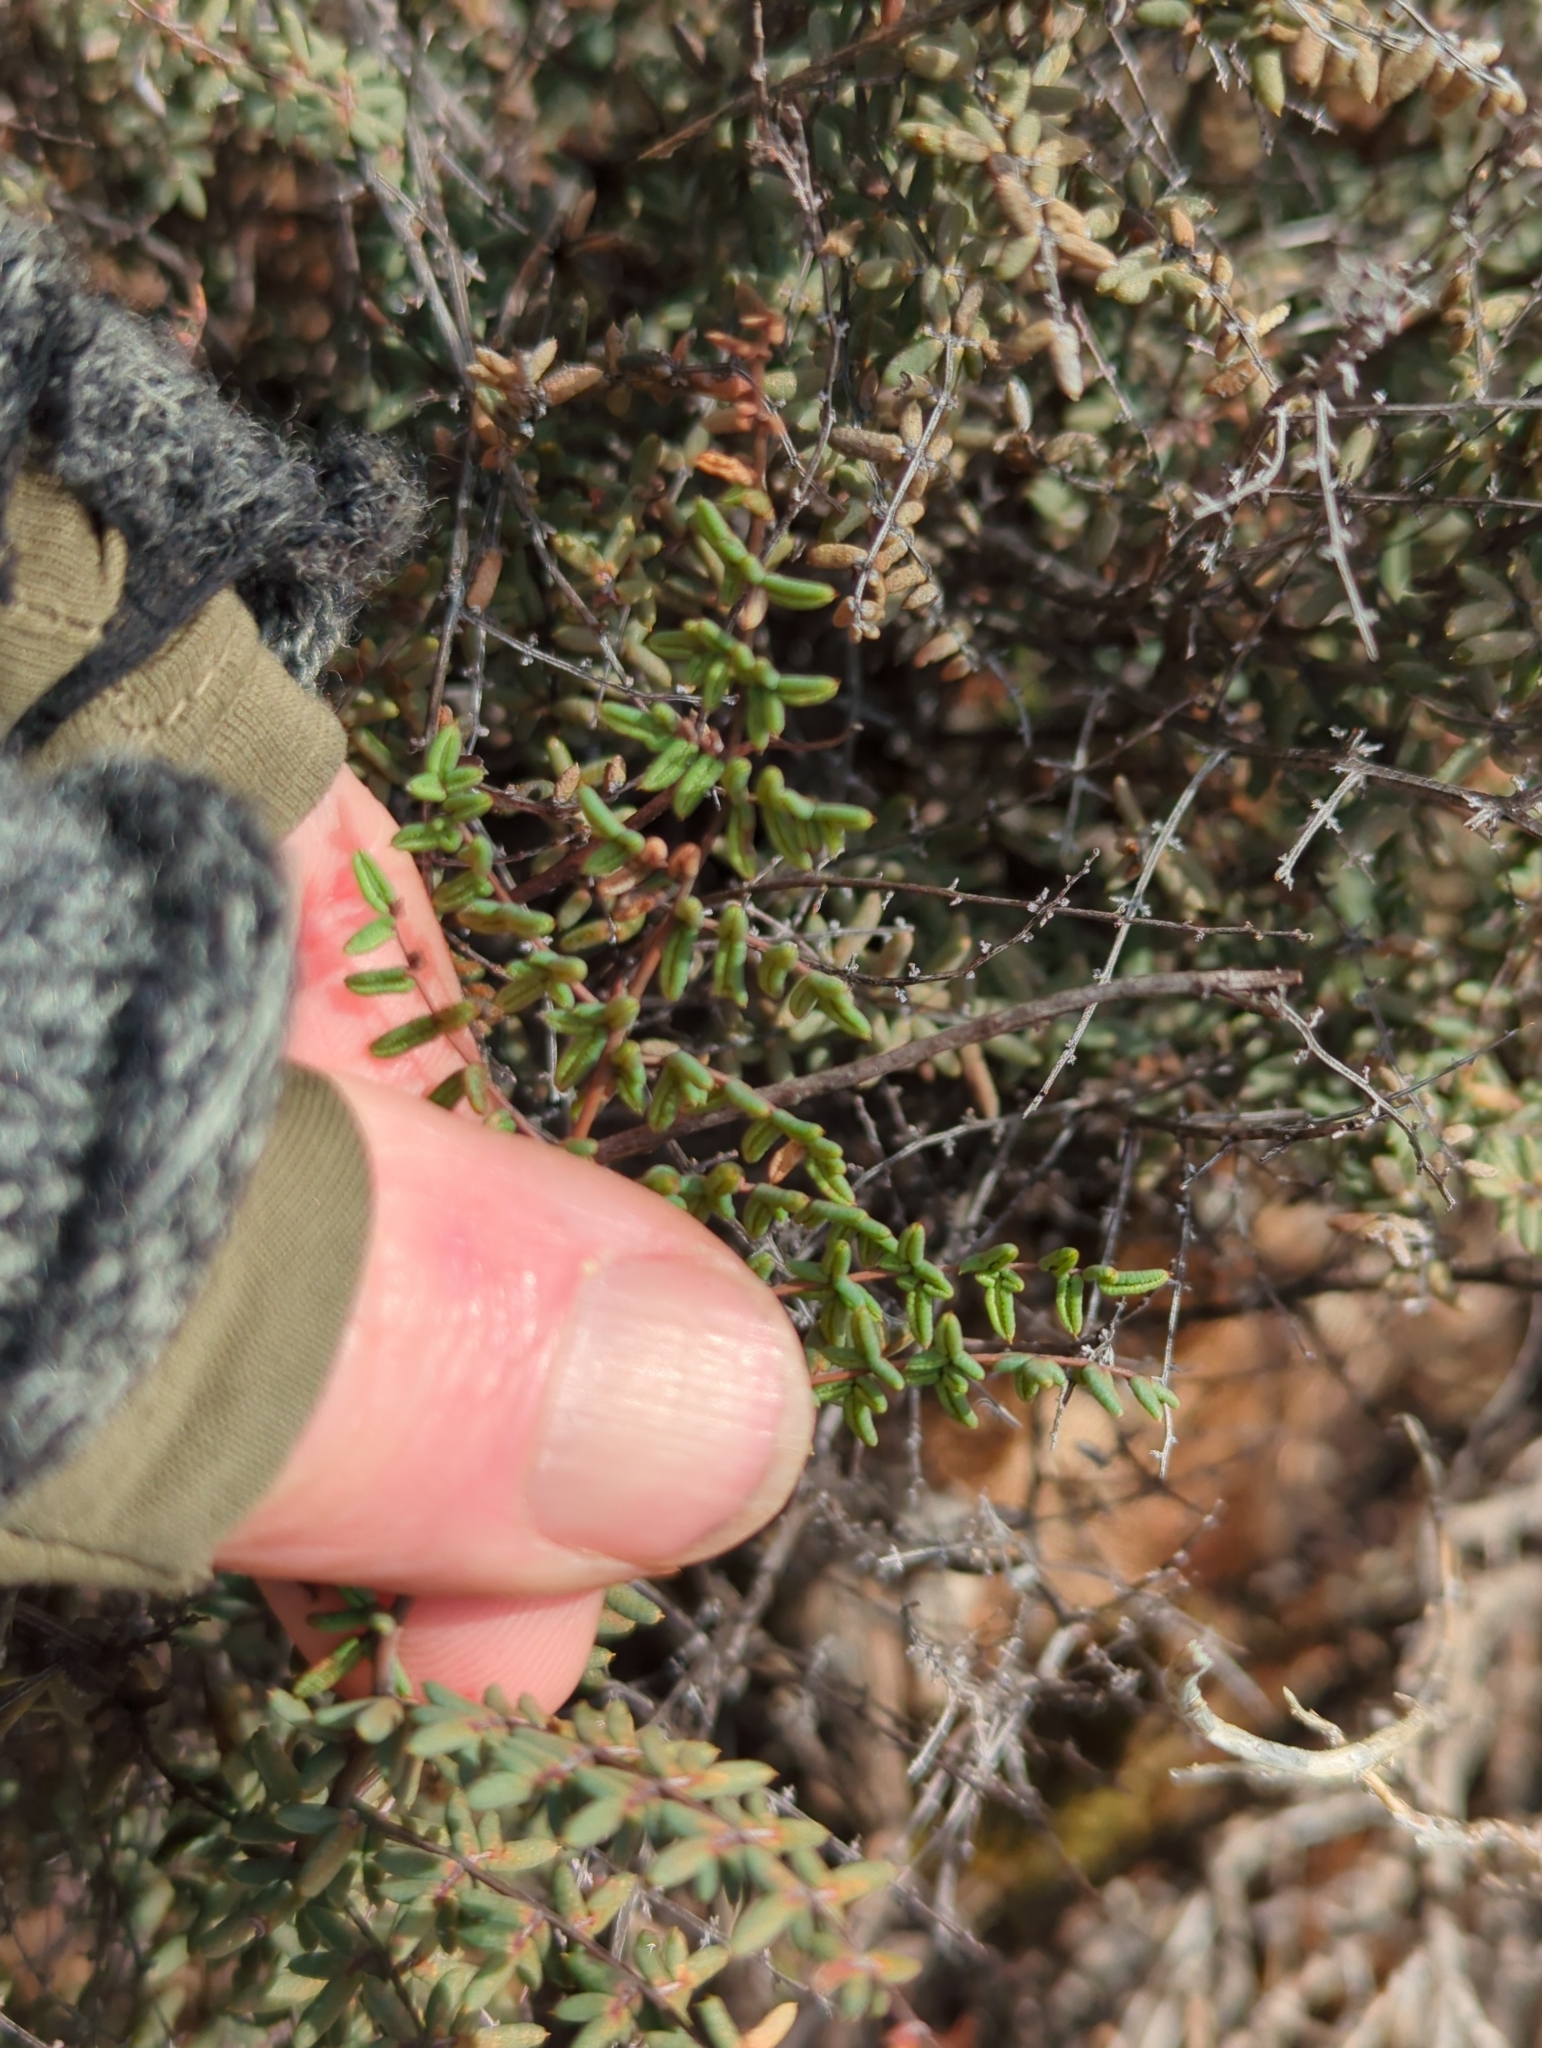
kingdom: Plantae
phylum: Tracheophyta
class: Polypodiopsida
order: Polypodiales
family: Pteridaceae
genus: Pellaea
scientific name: Pellaea mucronata
